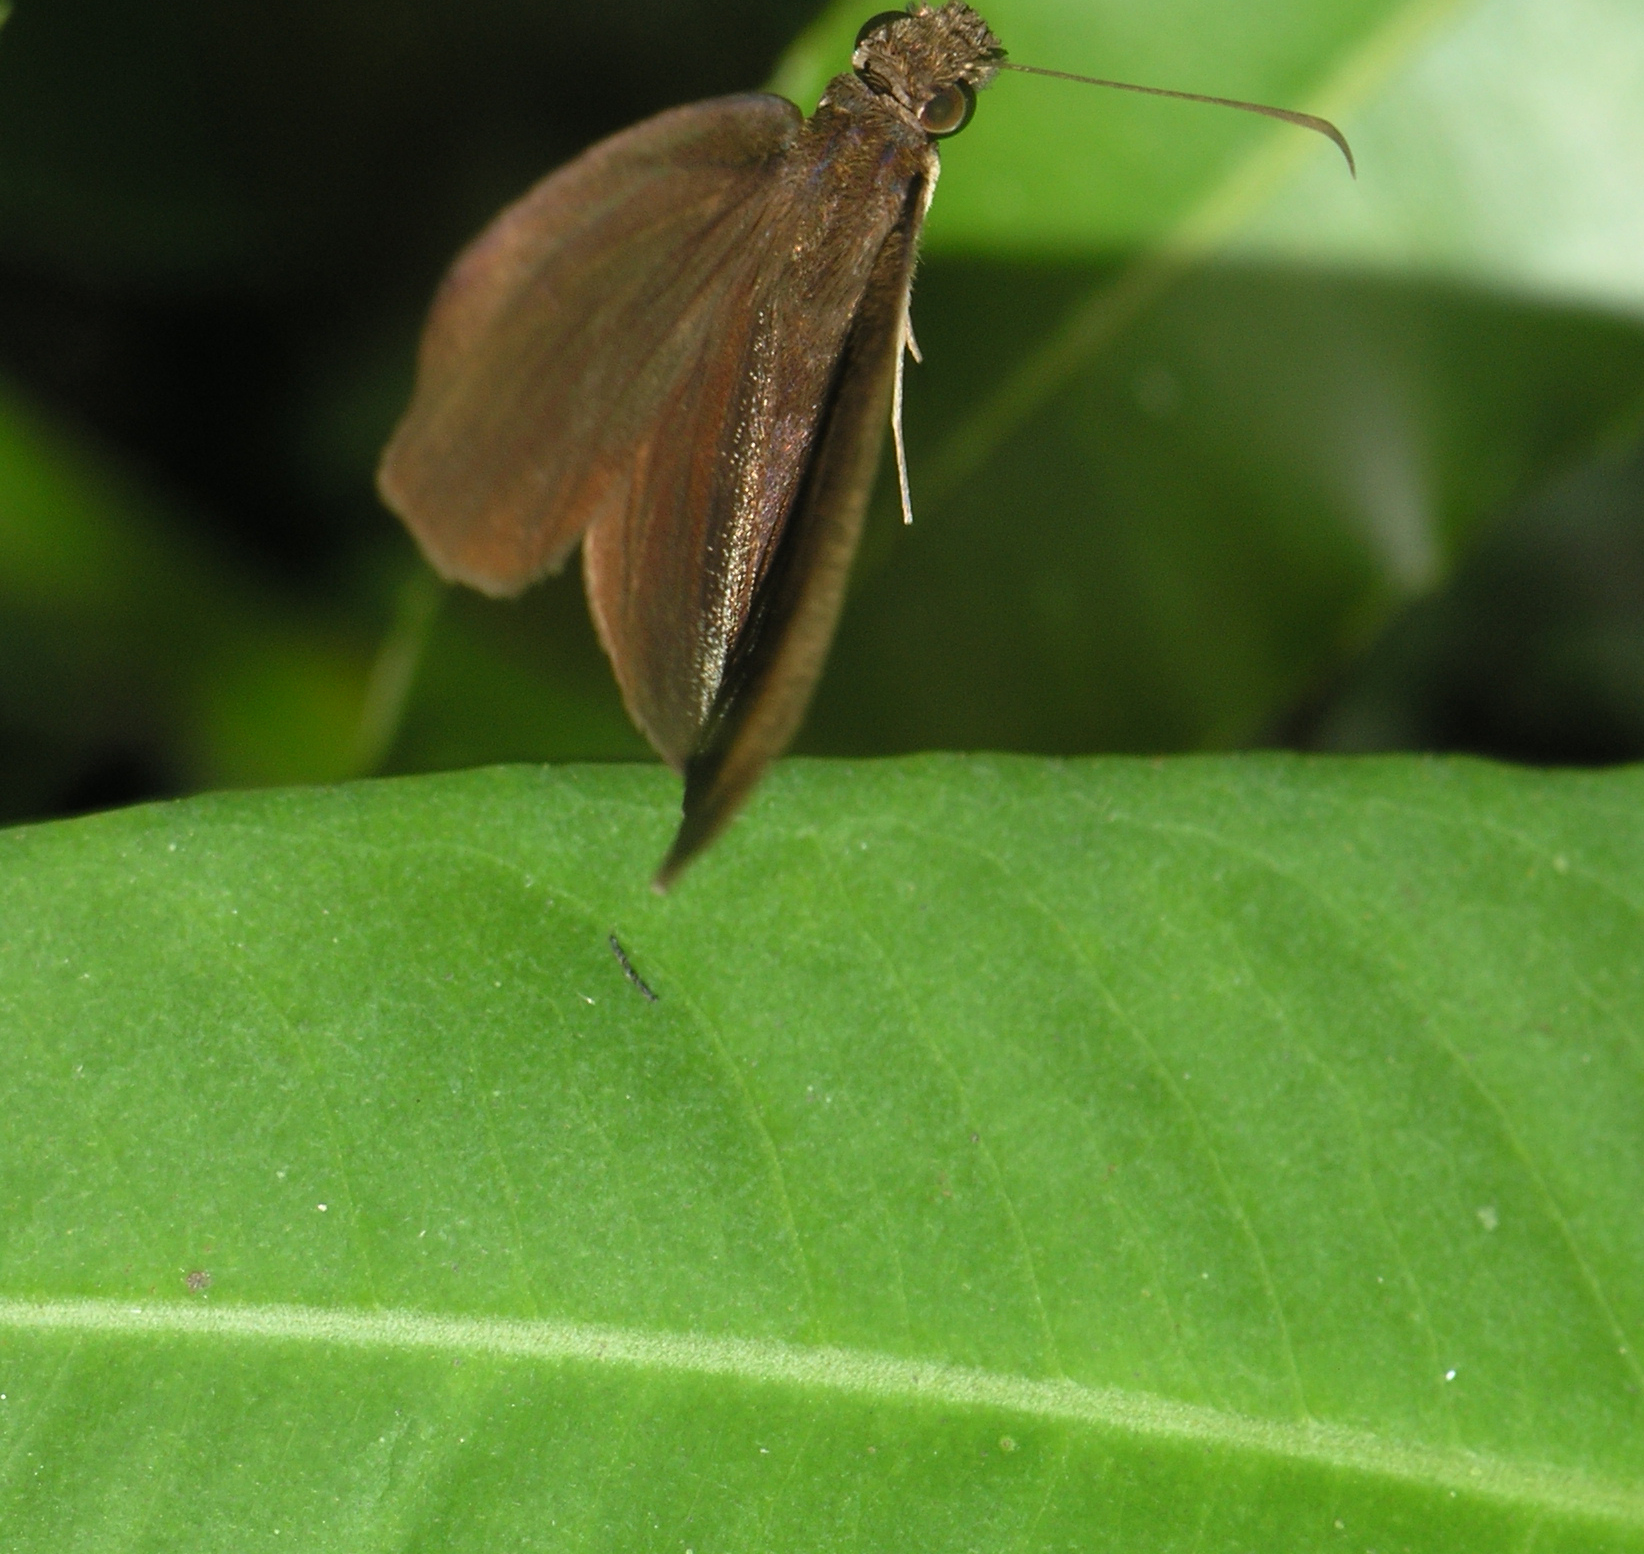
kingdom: Animalia
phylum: Arthropoda
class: Insecta
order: Lepidoptera
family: Hesperiidae
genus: Psolos
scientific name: Psolos fuligo
